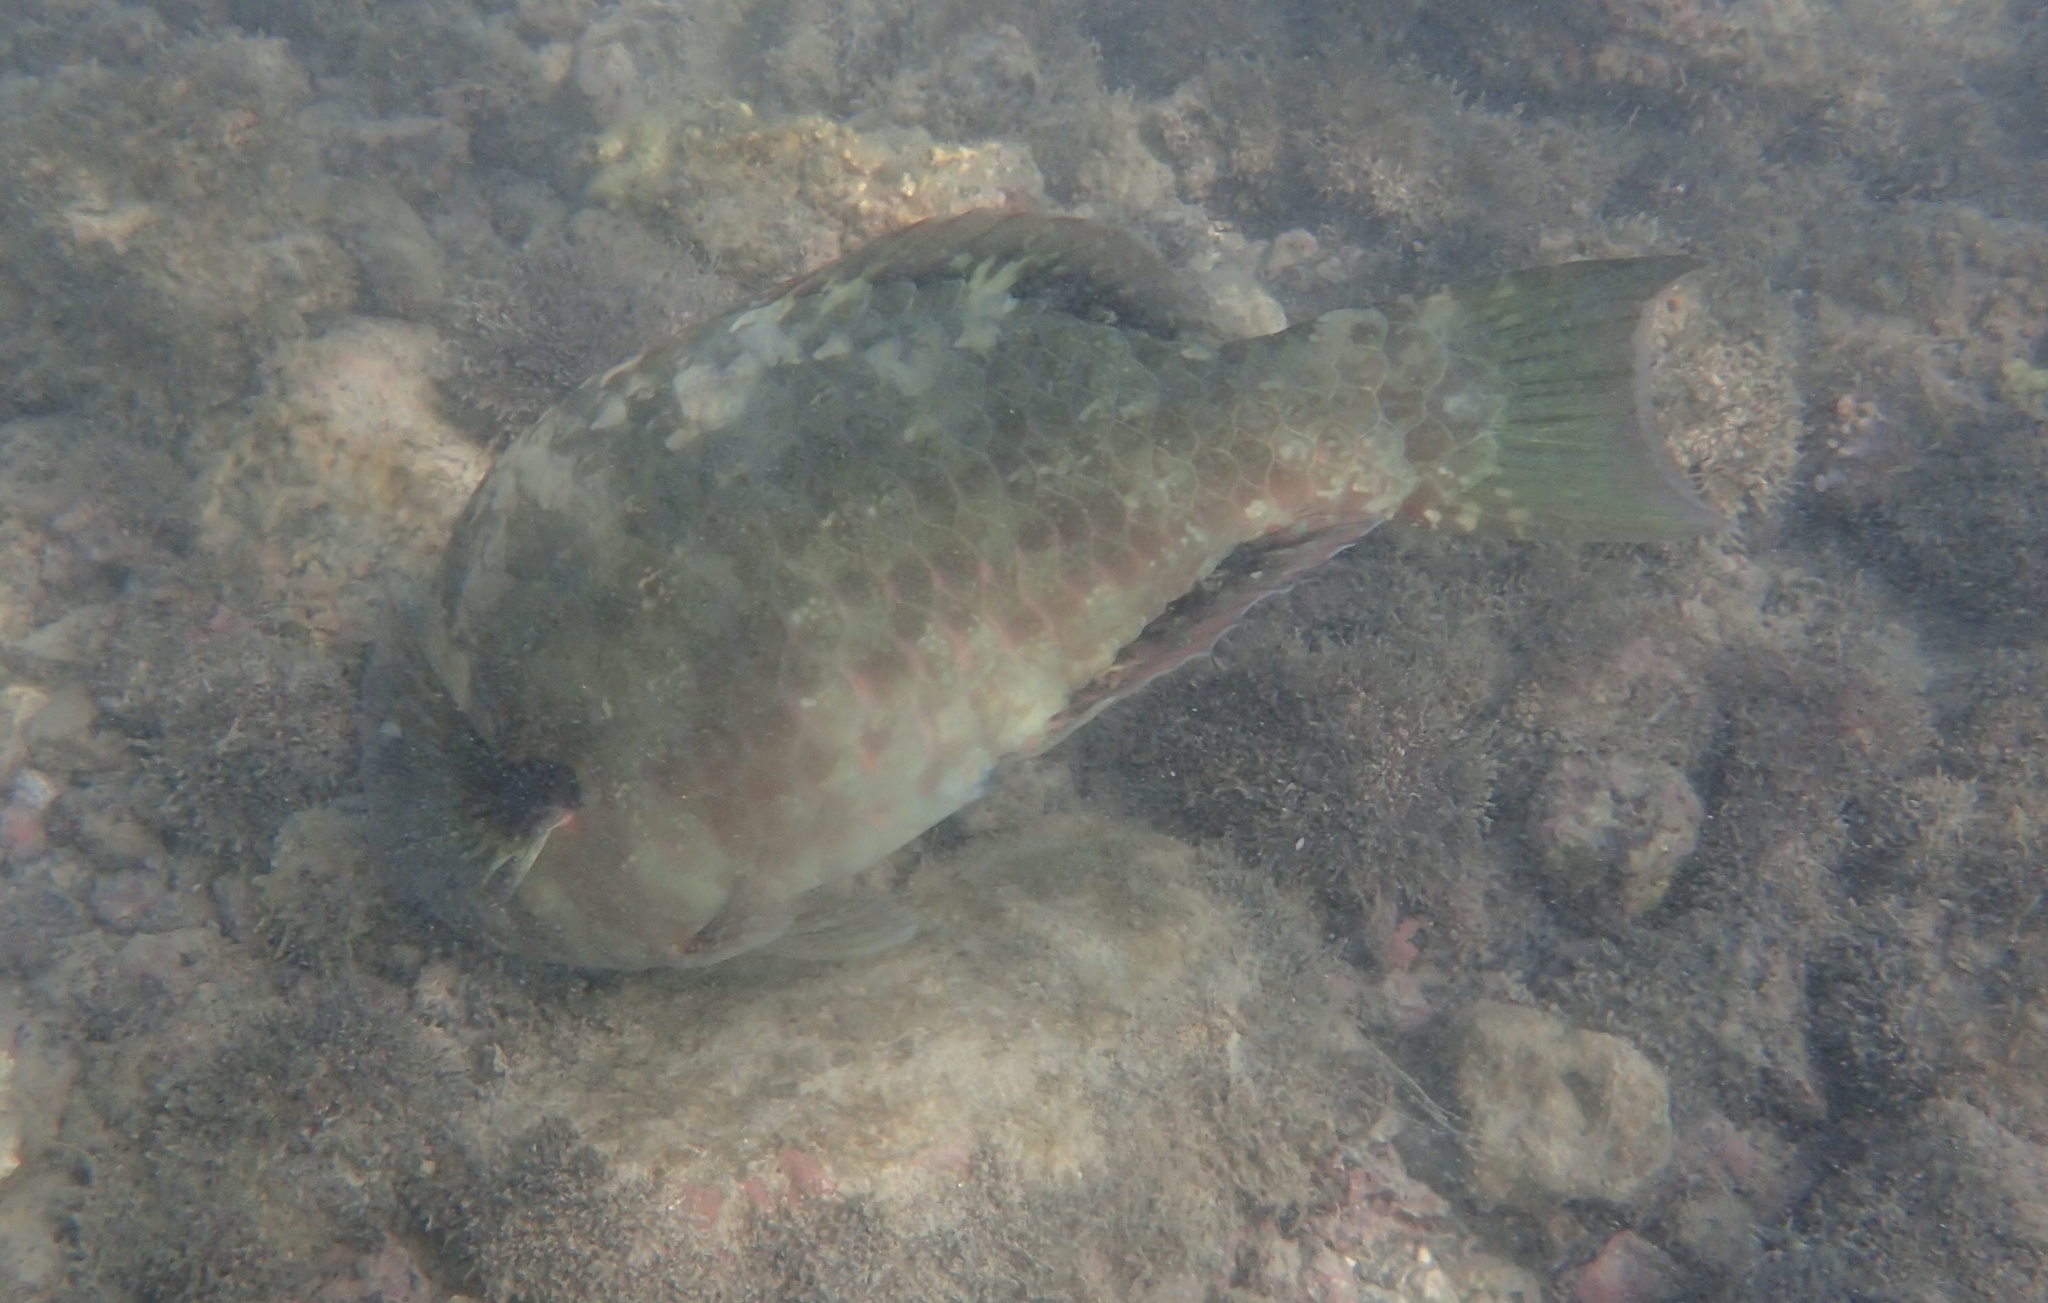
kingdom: Animalia
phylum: Chordata
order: Perciformes
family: Scaridae
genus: Calotomus
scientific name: Calotomus carolinus
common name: Bucktooth
